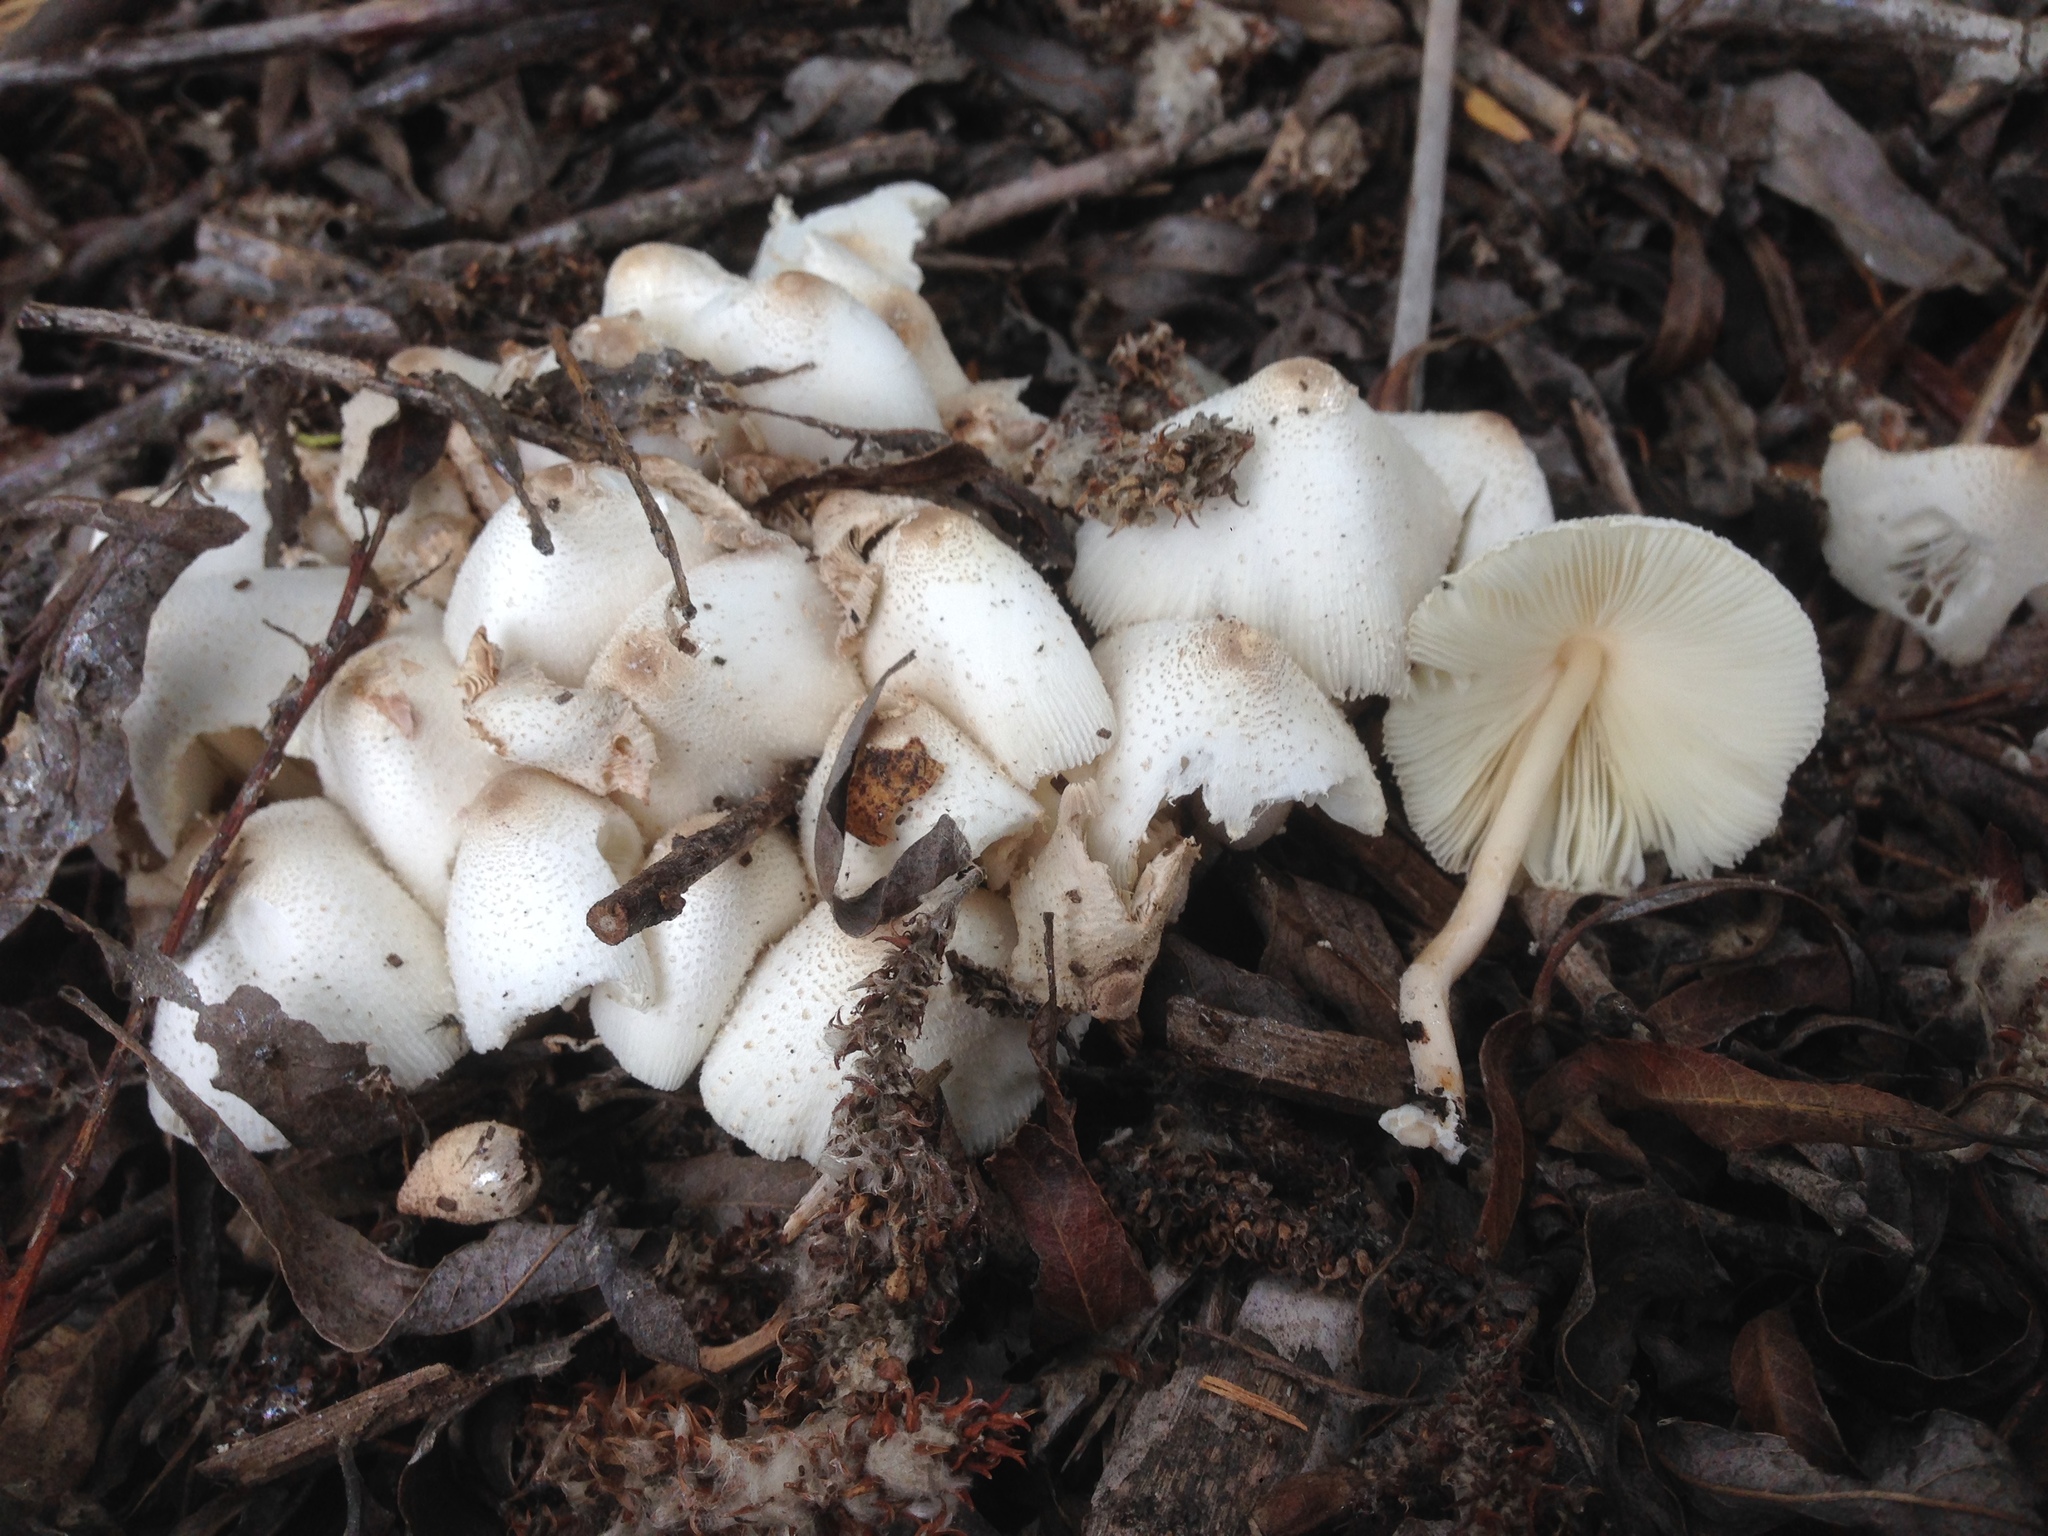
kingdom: Fungi
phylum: Basidiomycota
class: Agaricomycetes
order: Agaricales
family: Agaricaceae
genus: Leucocoprinus
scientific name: Leucocoprinus cepistipes
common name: Onion-stalk parasol
